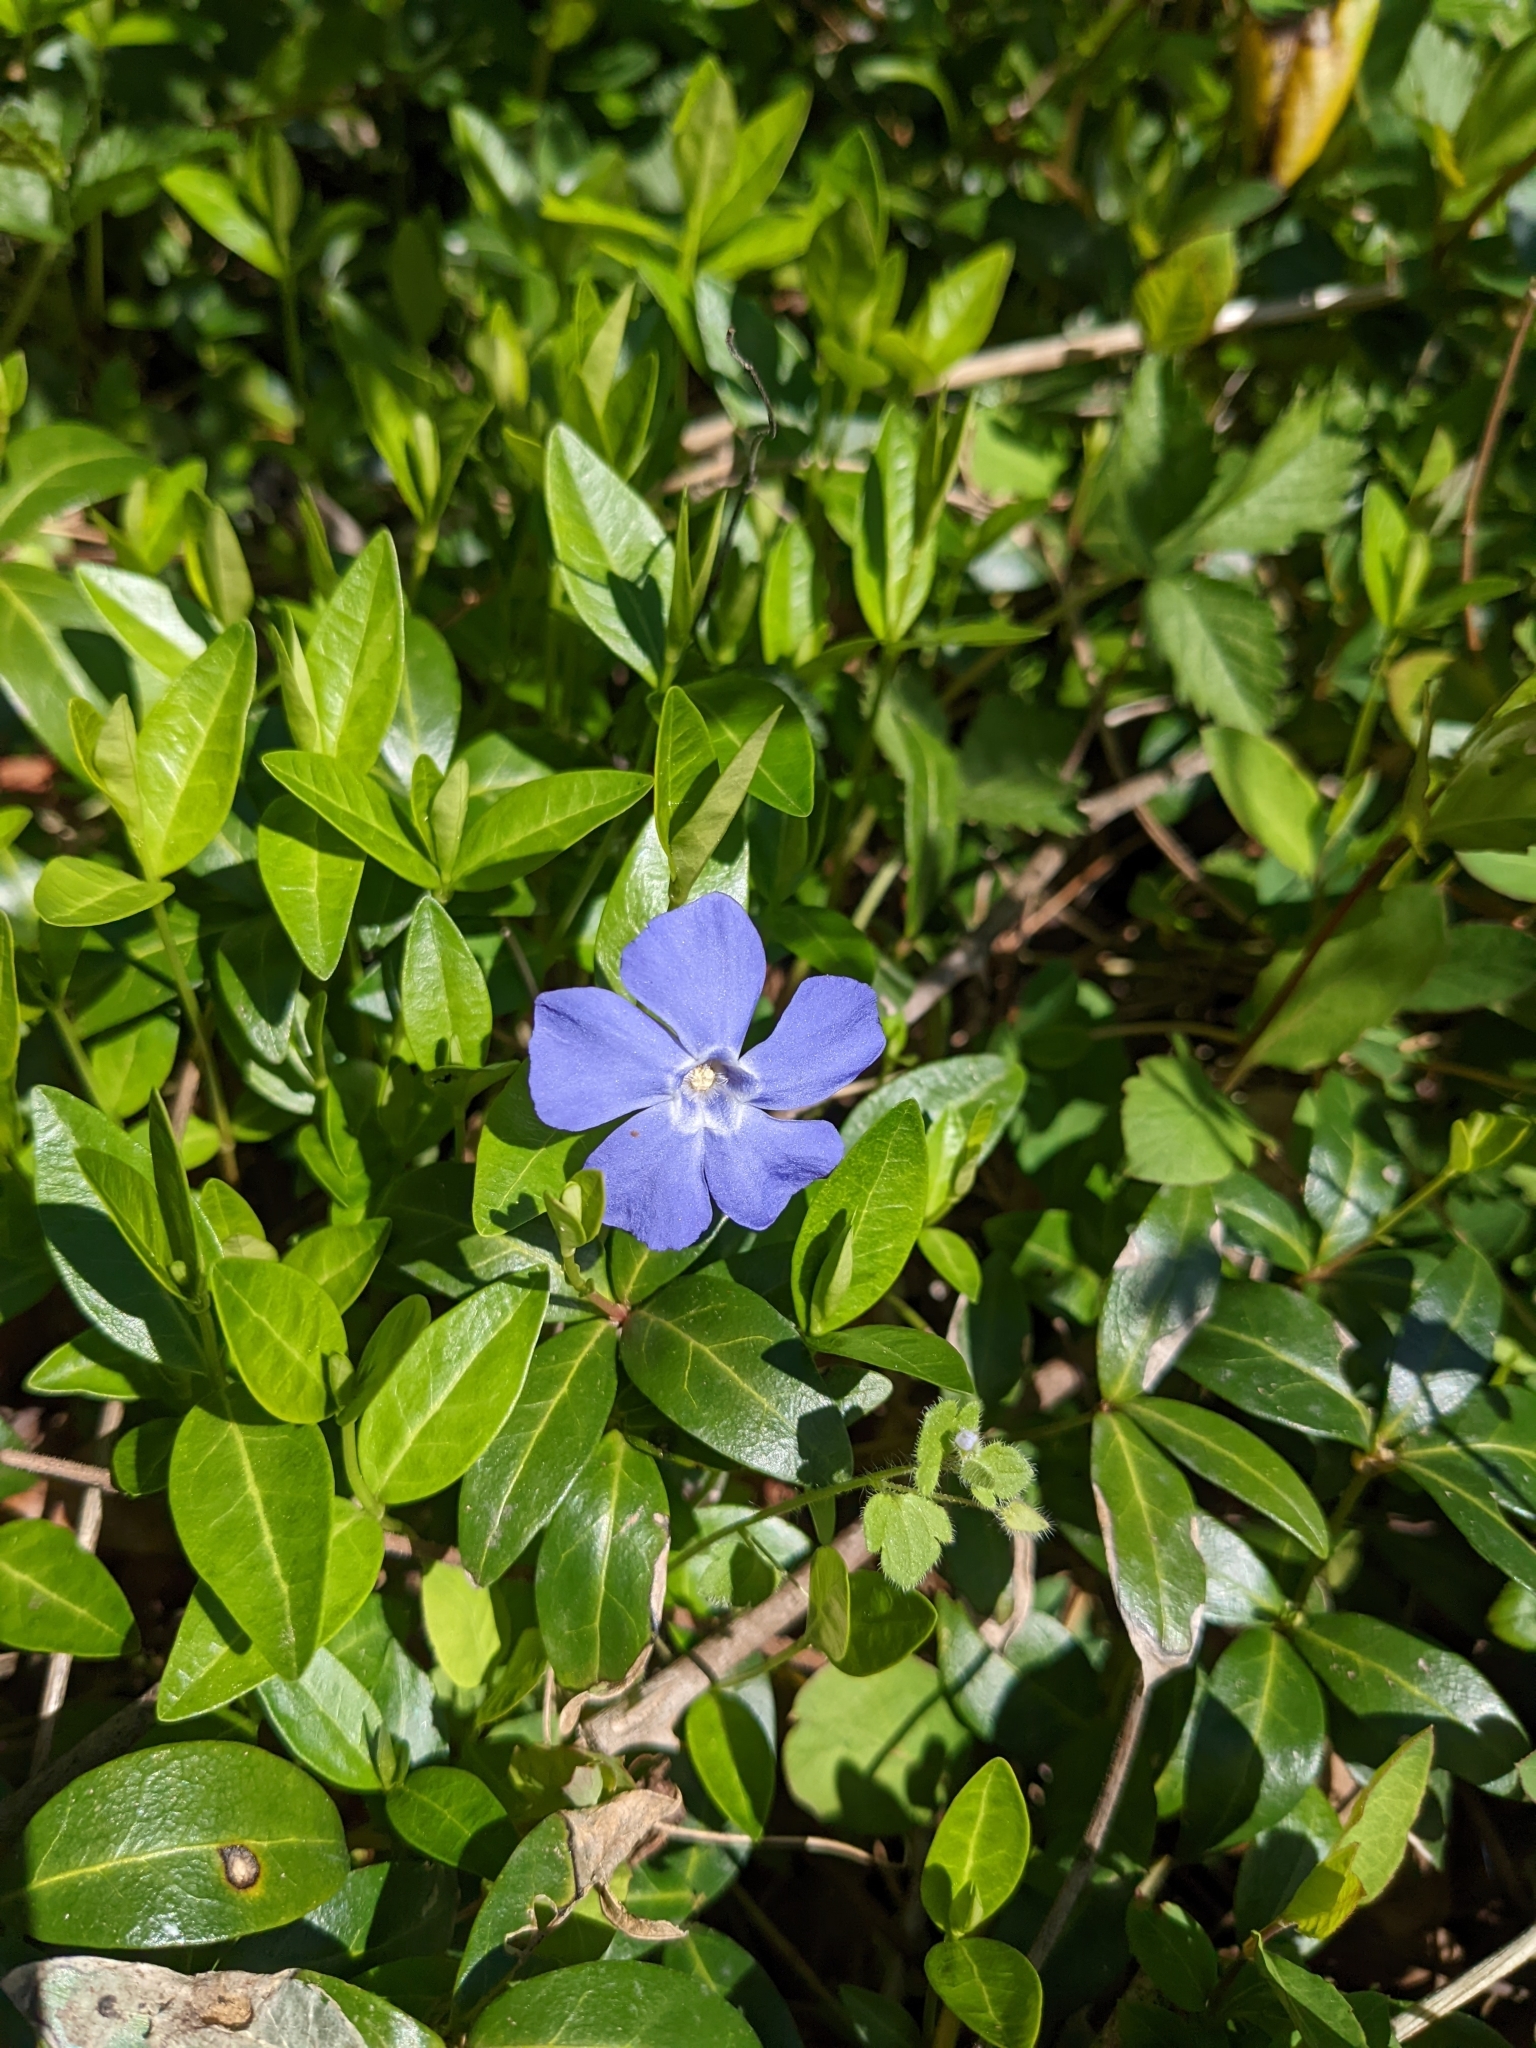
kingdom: Plantae
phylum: Tracheophyta
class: Magnoliopsida
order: Gentianales
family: Apocynaceae
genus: Vinca
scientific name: Vinca minor
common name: Lesser periwinkle
